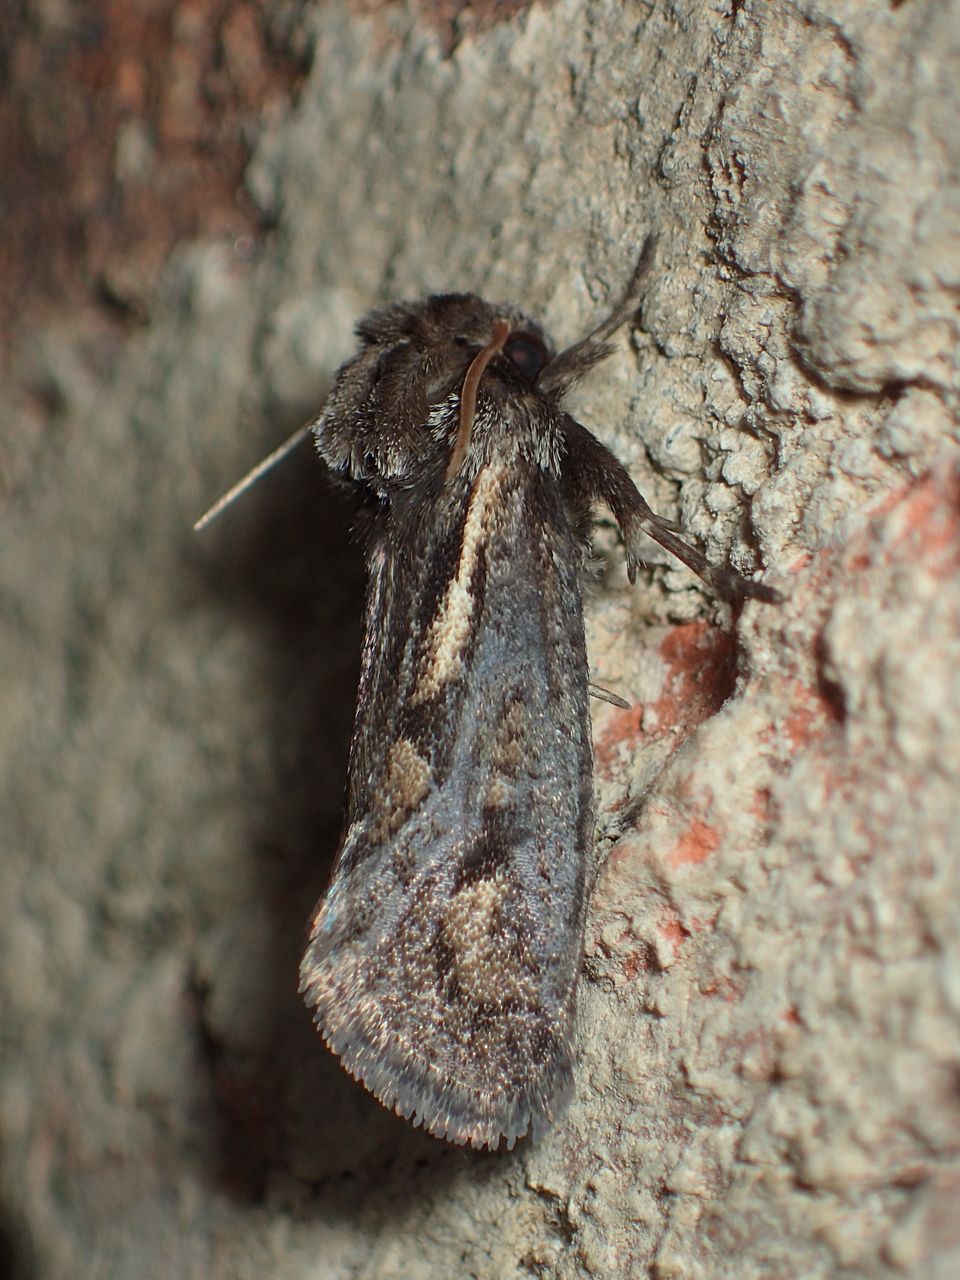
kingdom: Animalia
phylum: Arthropoda
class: Insecta
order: Lepidoptera
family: Tineidae
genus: Acrolophus
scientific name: Acrolophus popeanella
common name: Clemens' grass tubeworm moth
